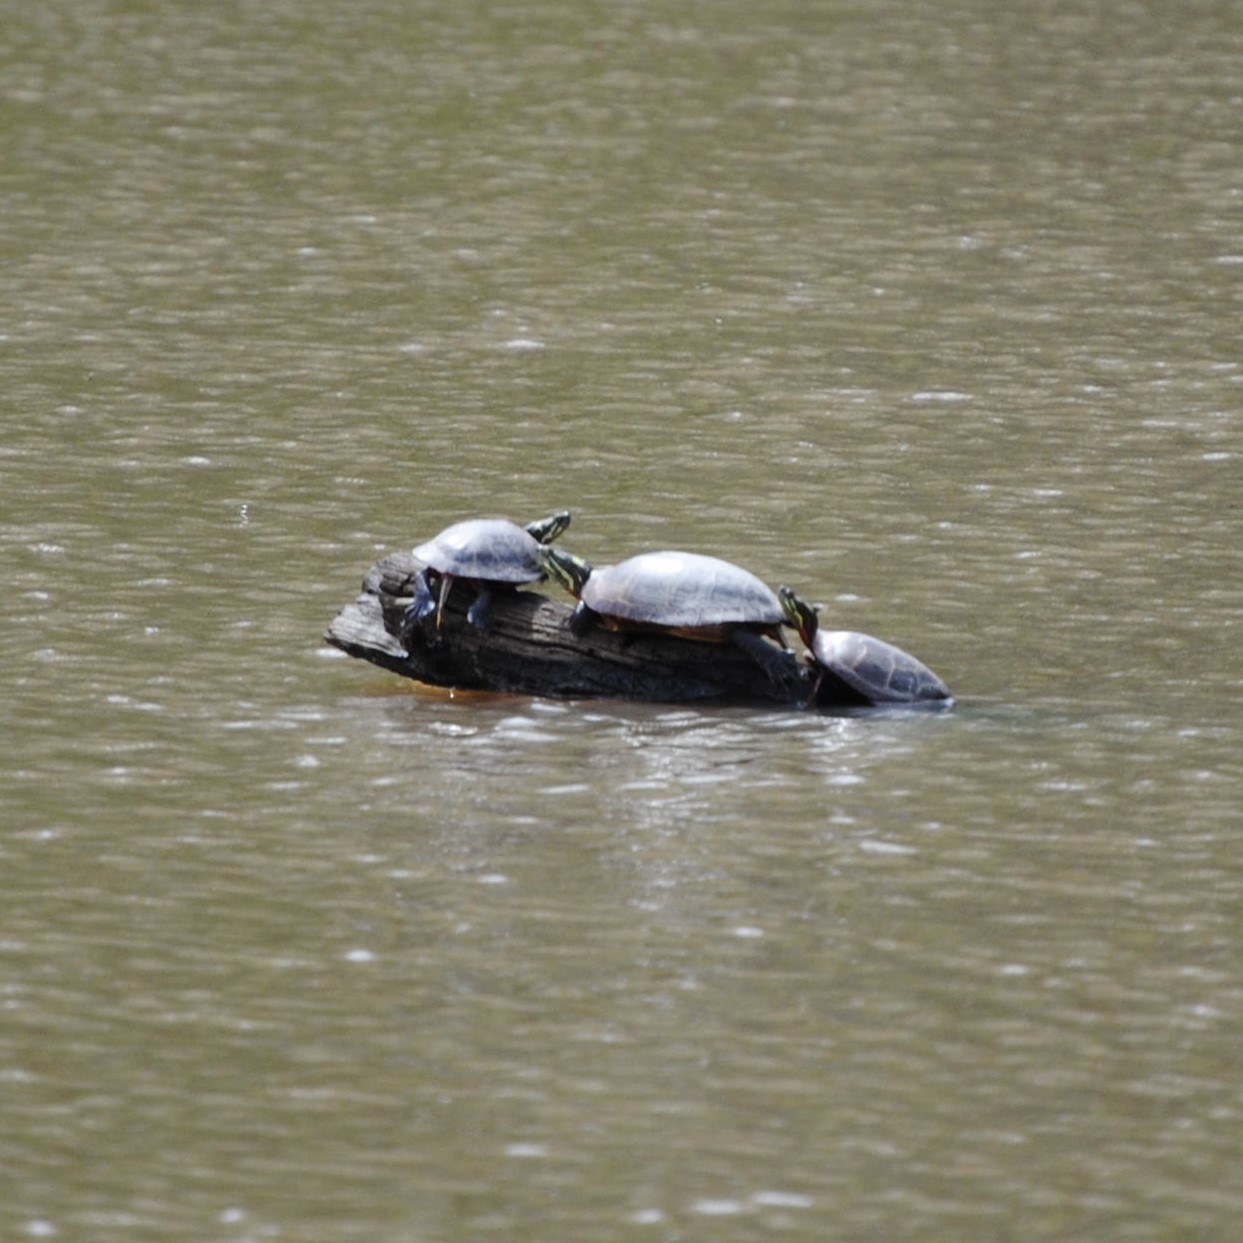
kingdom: Animalia
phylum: Chordata
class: Testudines
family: Emydidae
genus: Chrysemys
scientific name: Chrysemys picta
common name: Painted turtle
